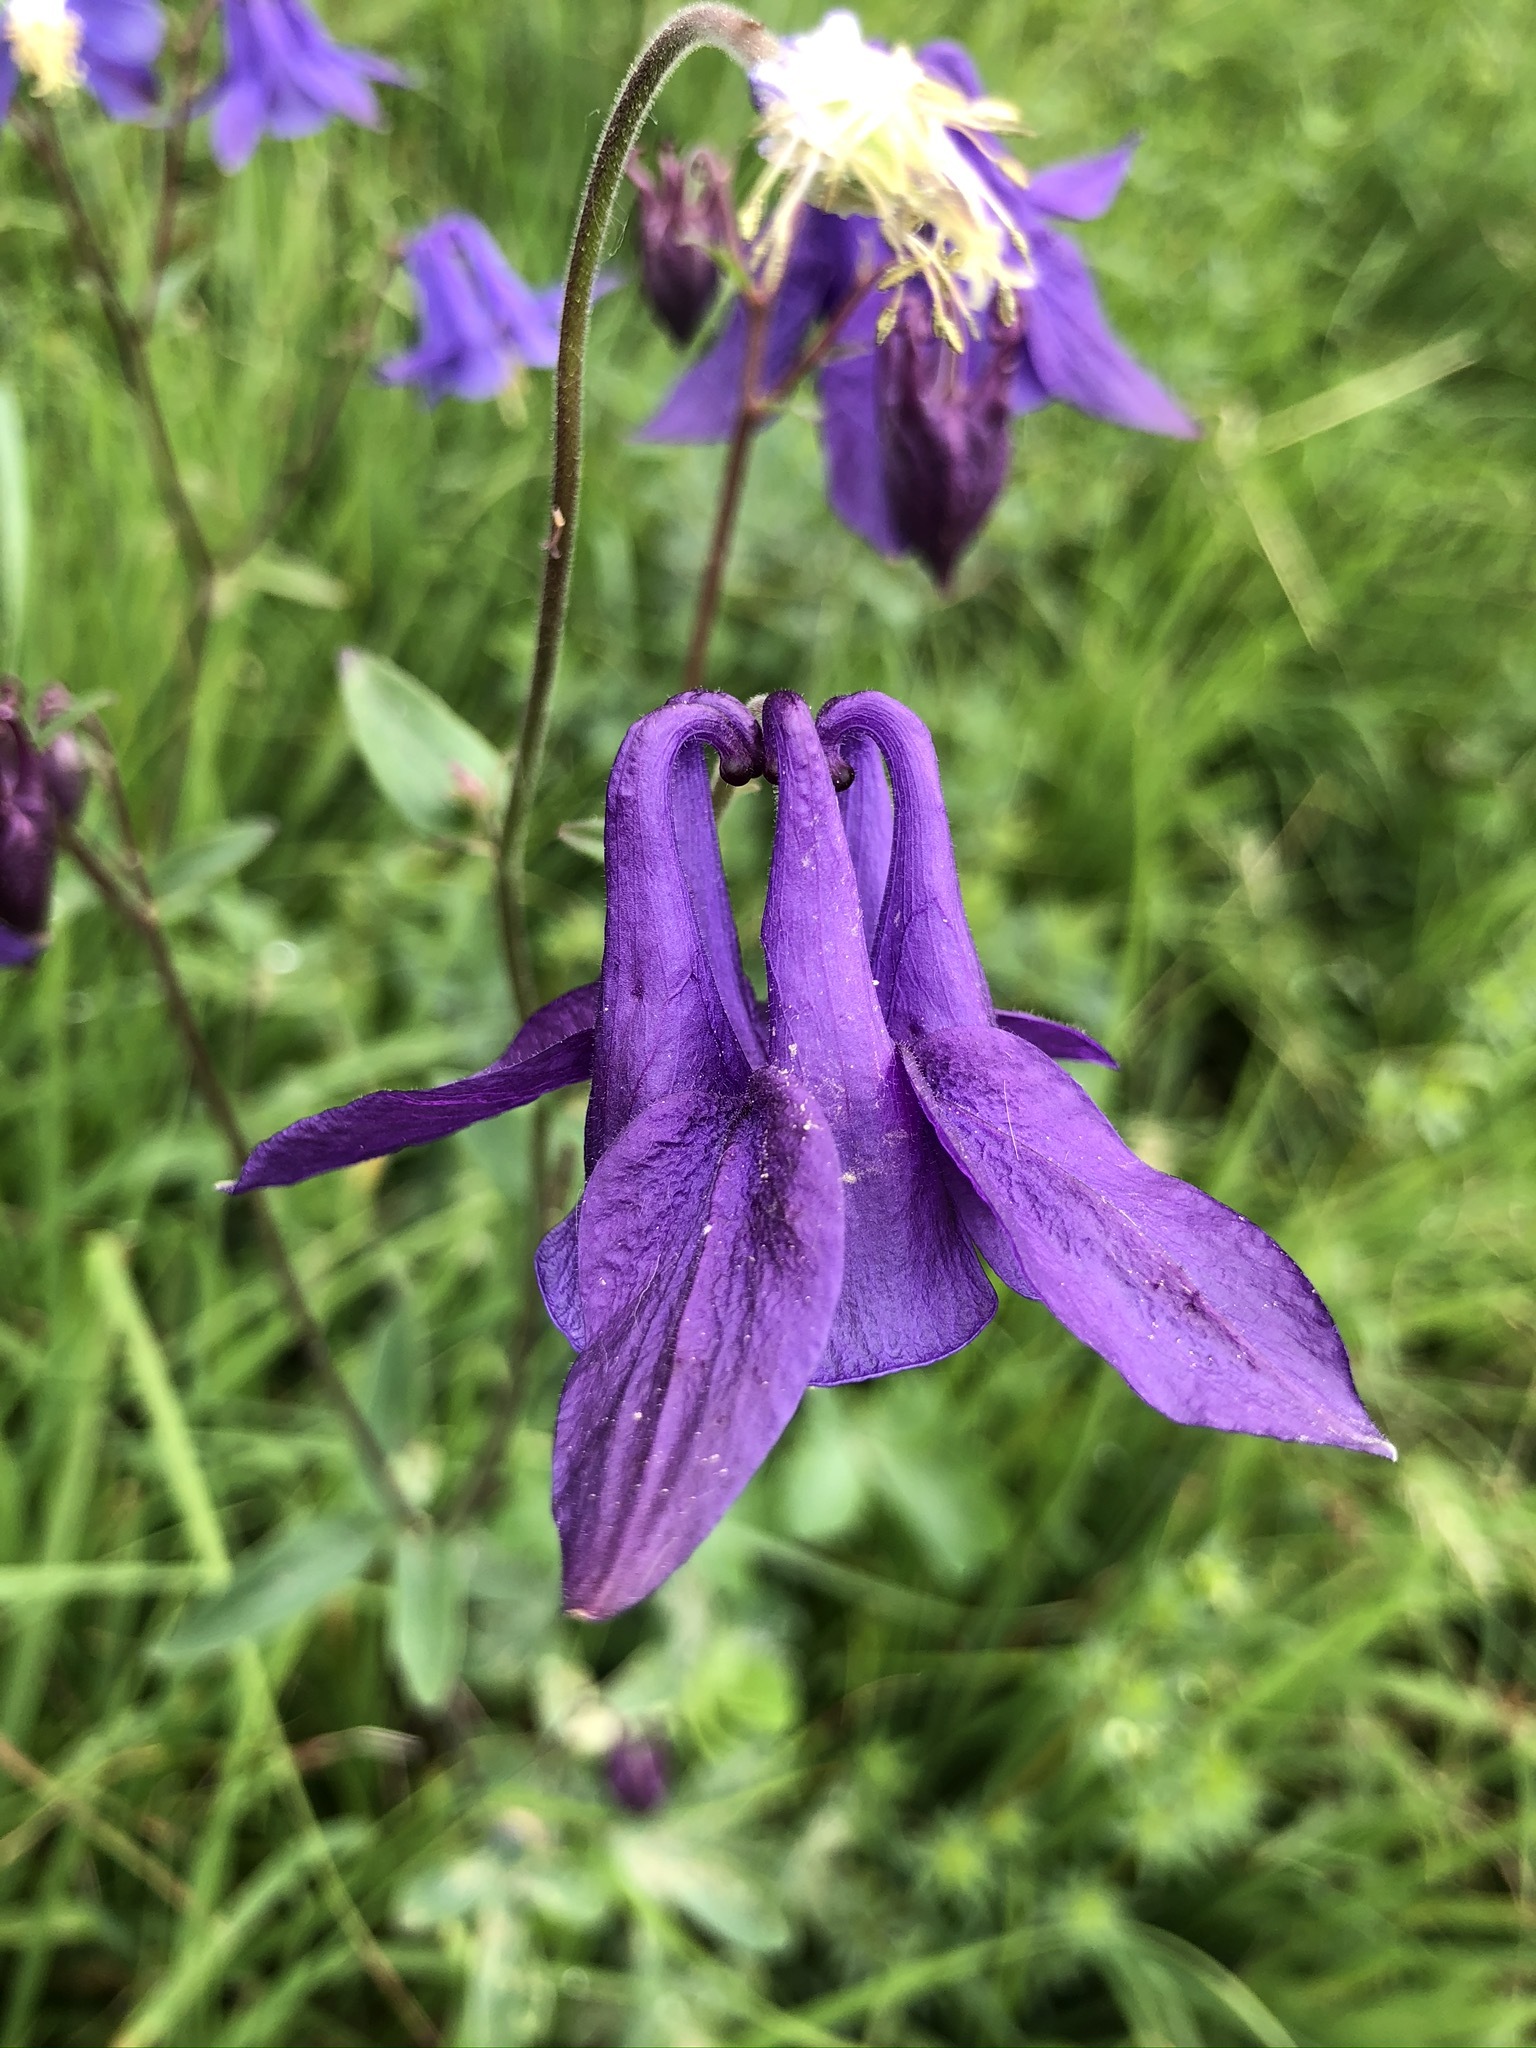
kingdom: Plantae
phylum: Tracheophyta
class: Magnoliopsida
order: Ranunculales
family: Ranunculaceae
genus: Aquilegia
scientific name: Aquilegia vulgaris
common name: Columbine
